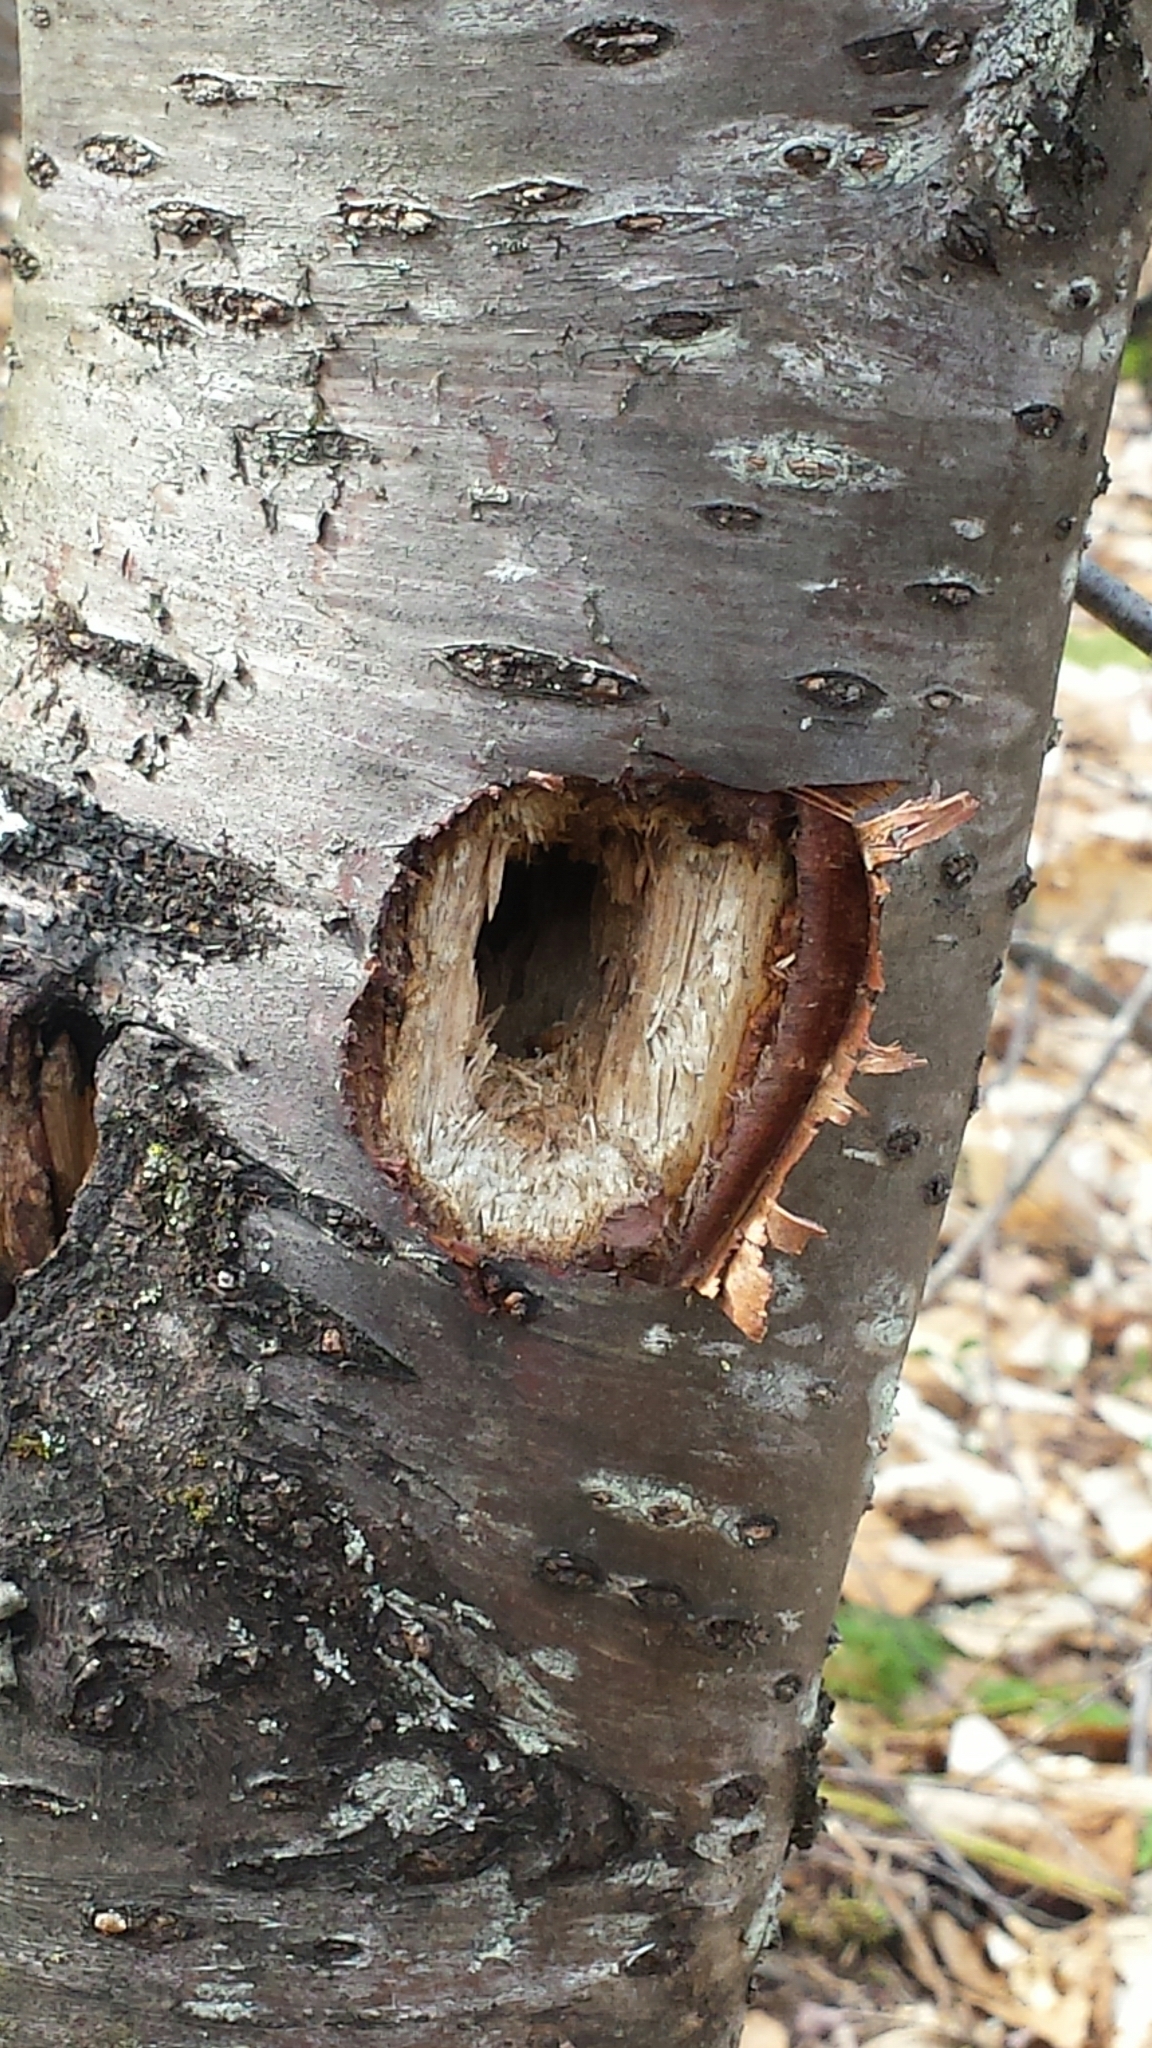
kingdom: Animalia
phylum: Chordata
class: Aves
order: Piciformes
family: Picidae
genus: Dryocopus
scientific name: Dryocopus pileatus
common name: Pileated woodpecker
